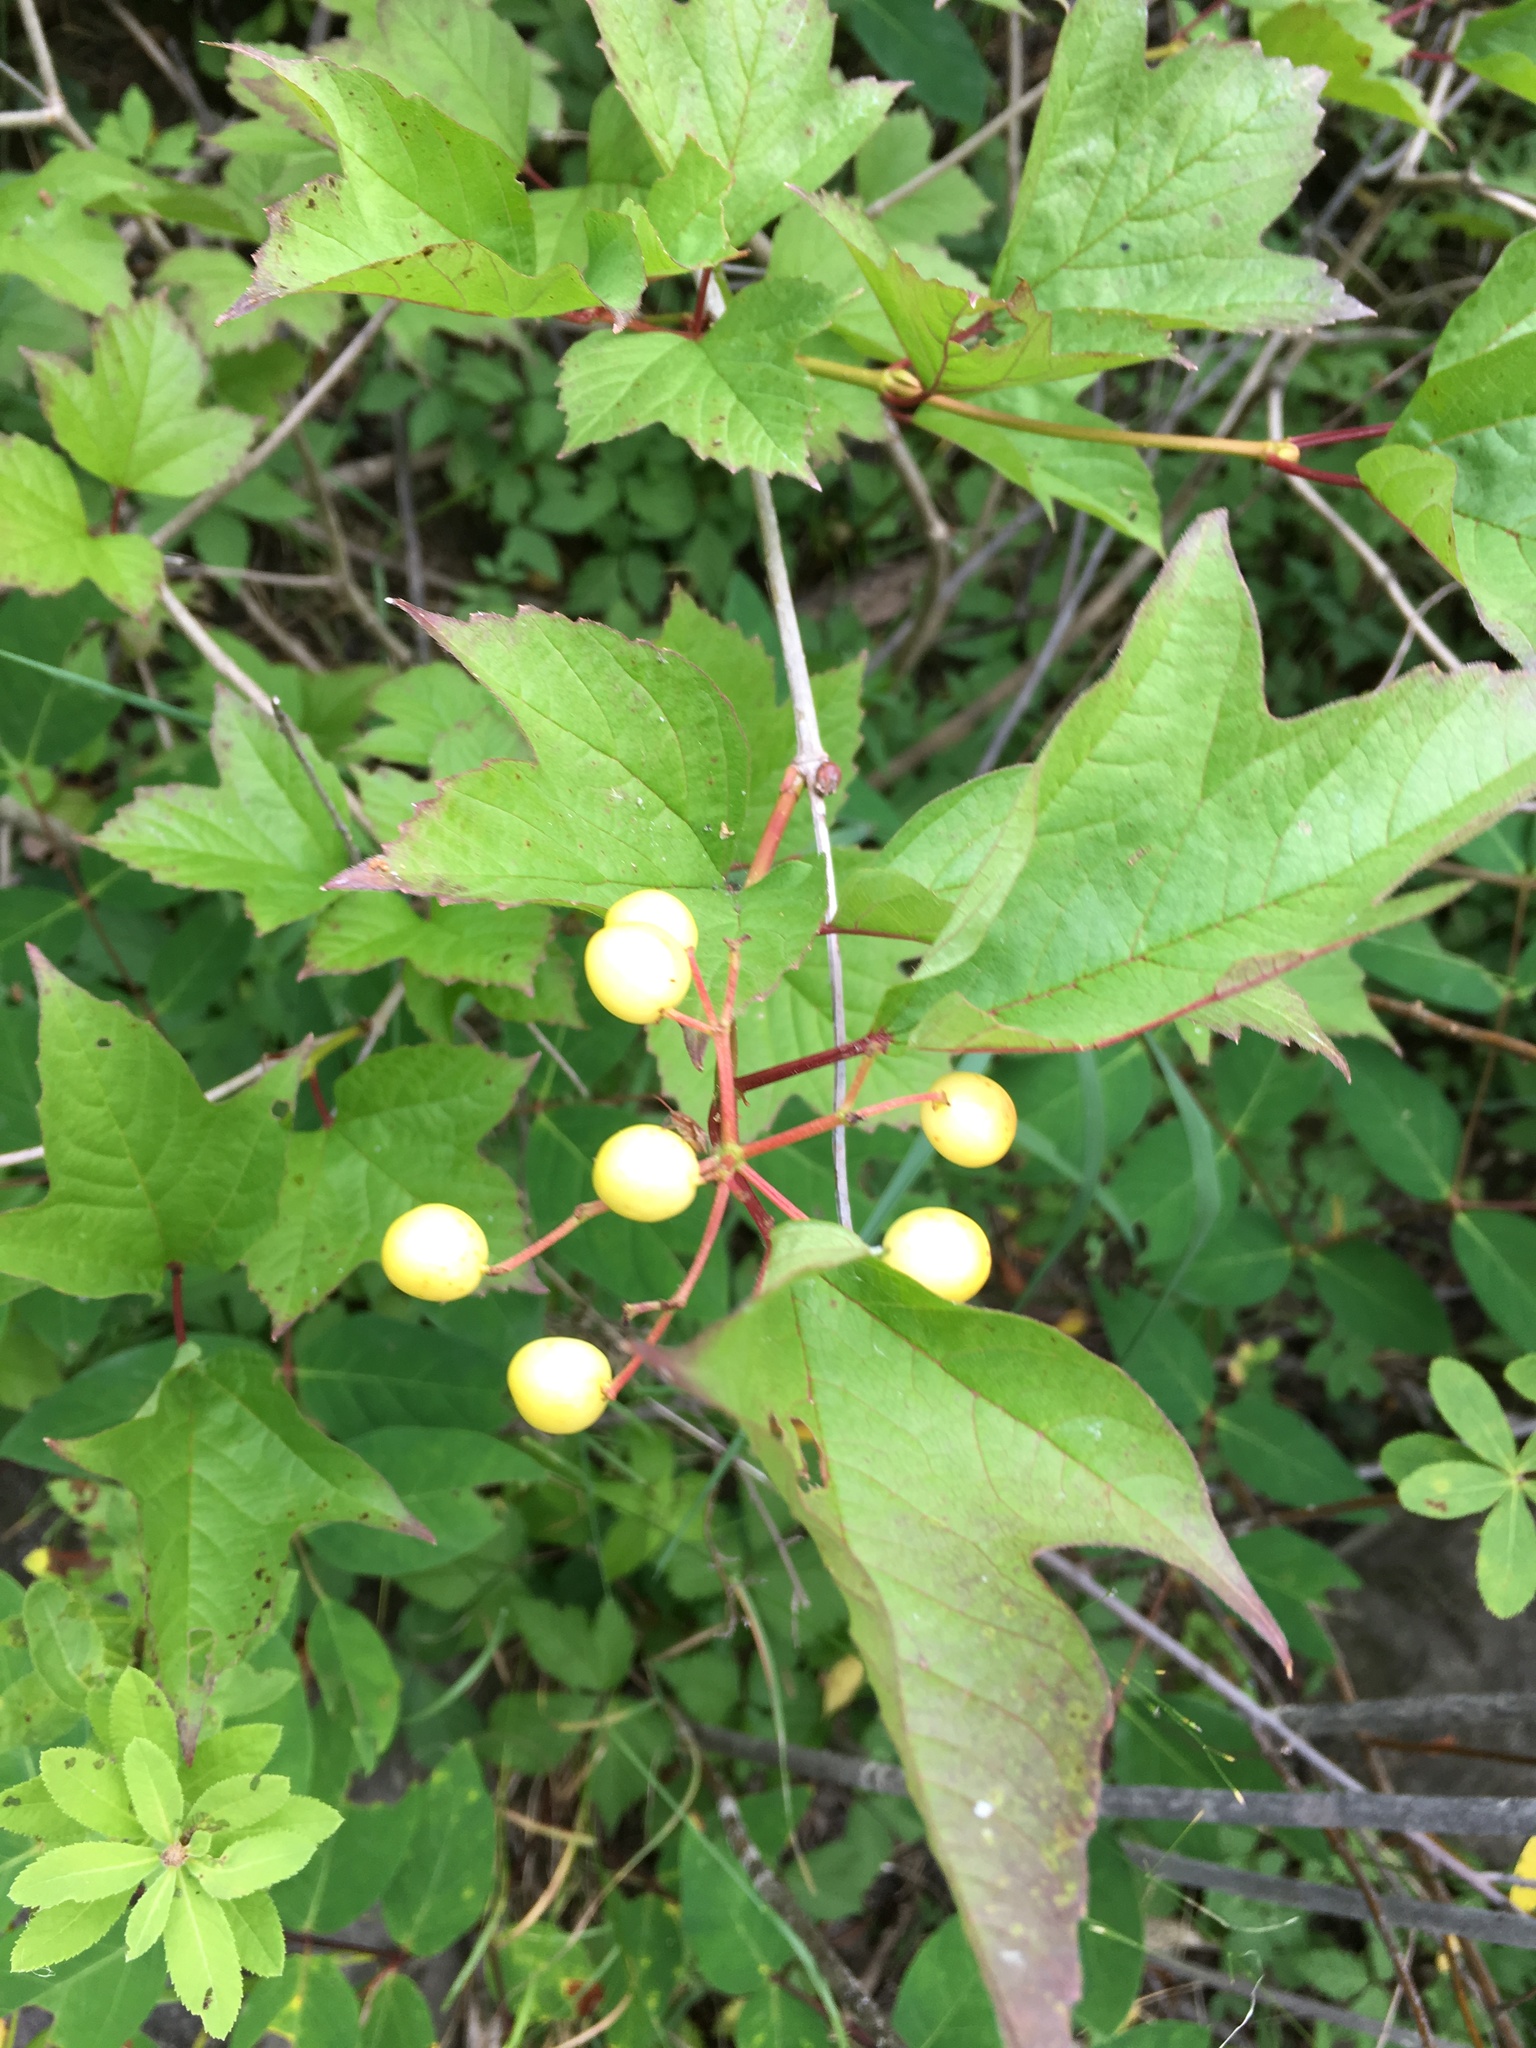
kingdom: Plantae
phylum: Tracheophyta
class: Magnoliopsida
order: Dipsacales
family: Viburnaceae
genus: Viburnum
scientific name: Viburnum opulus
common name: Guelder-rose
